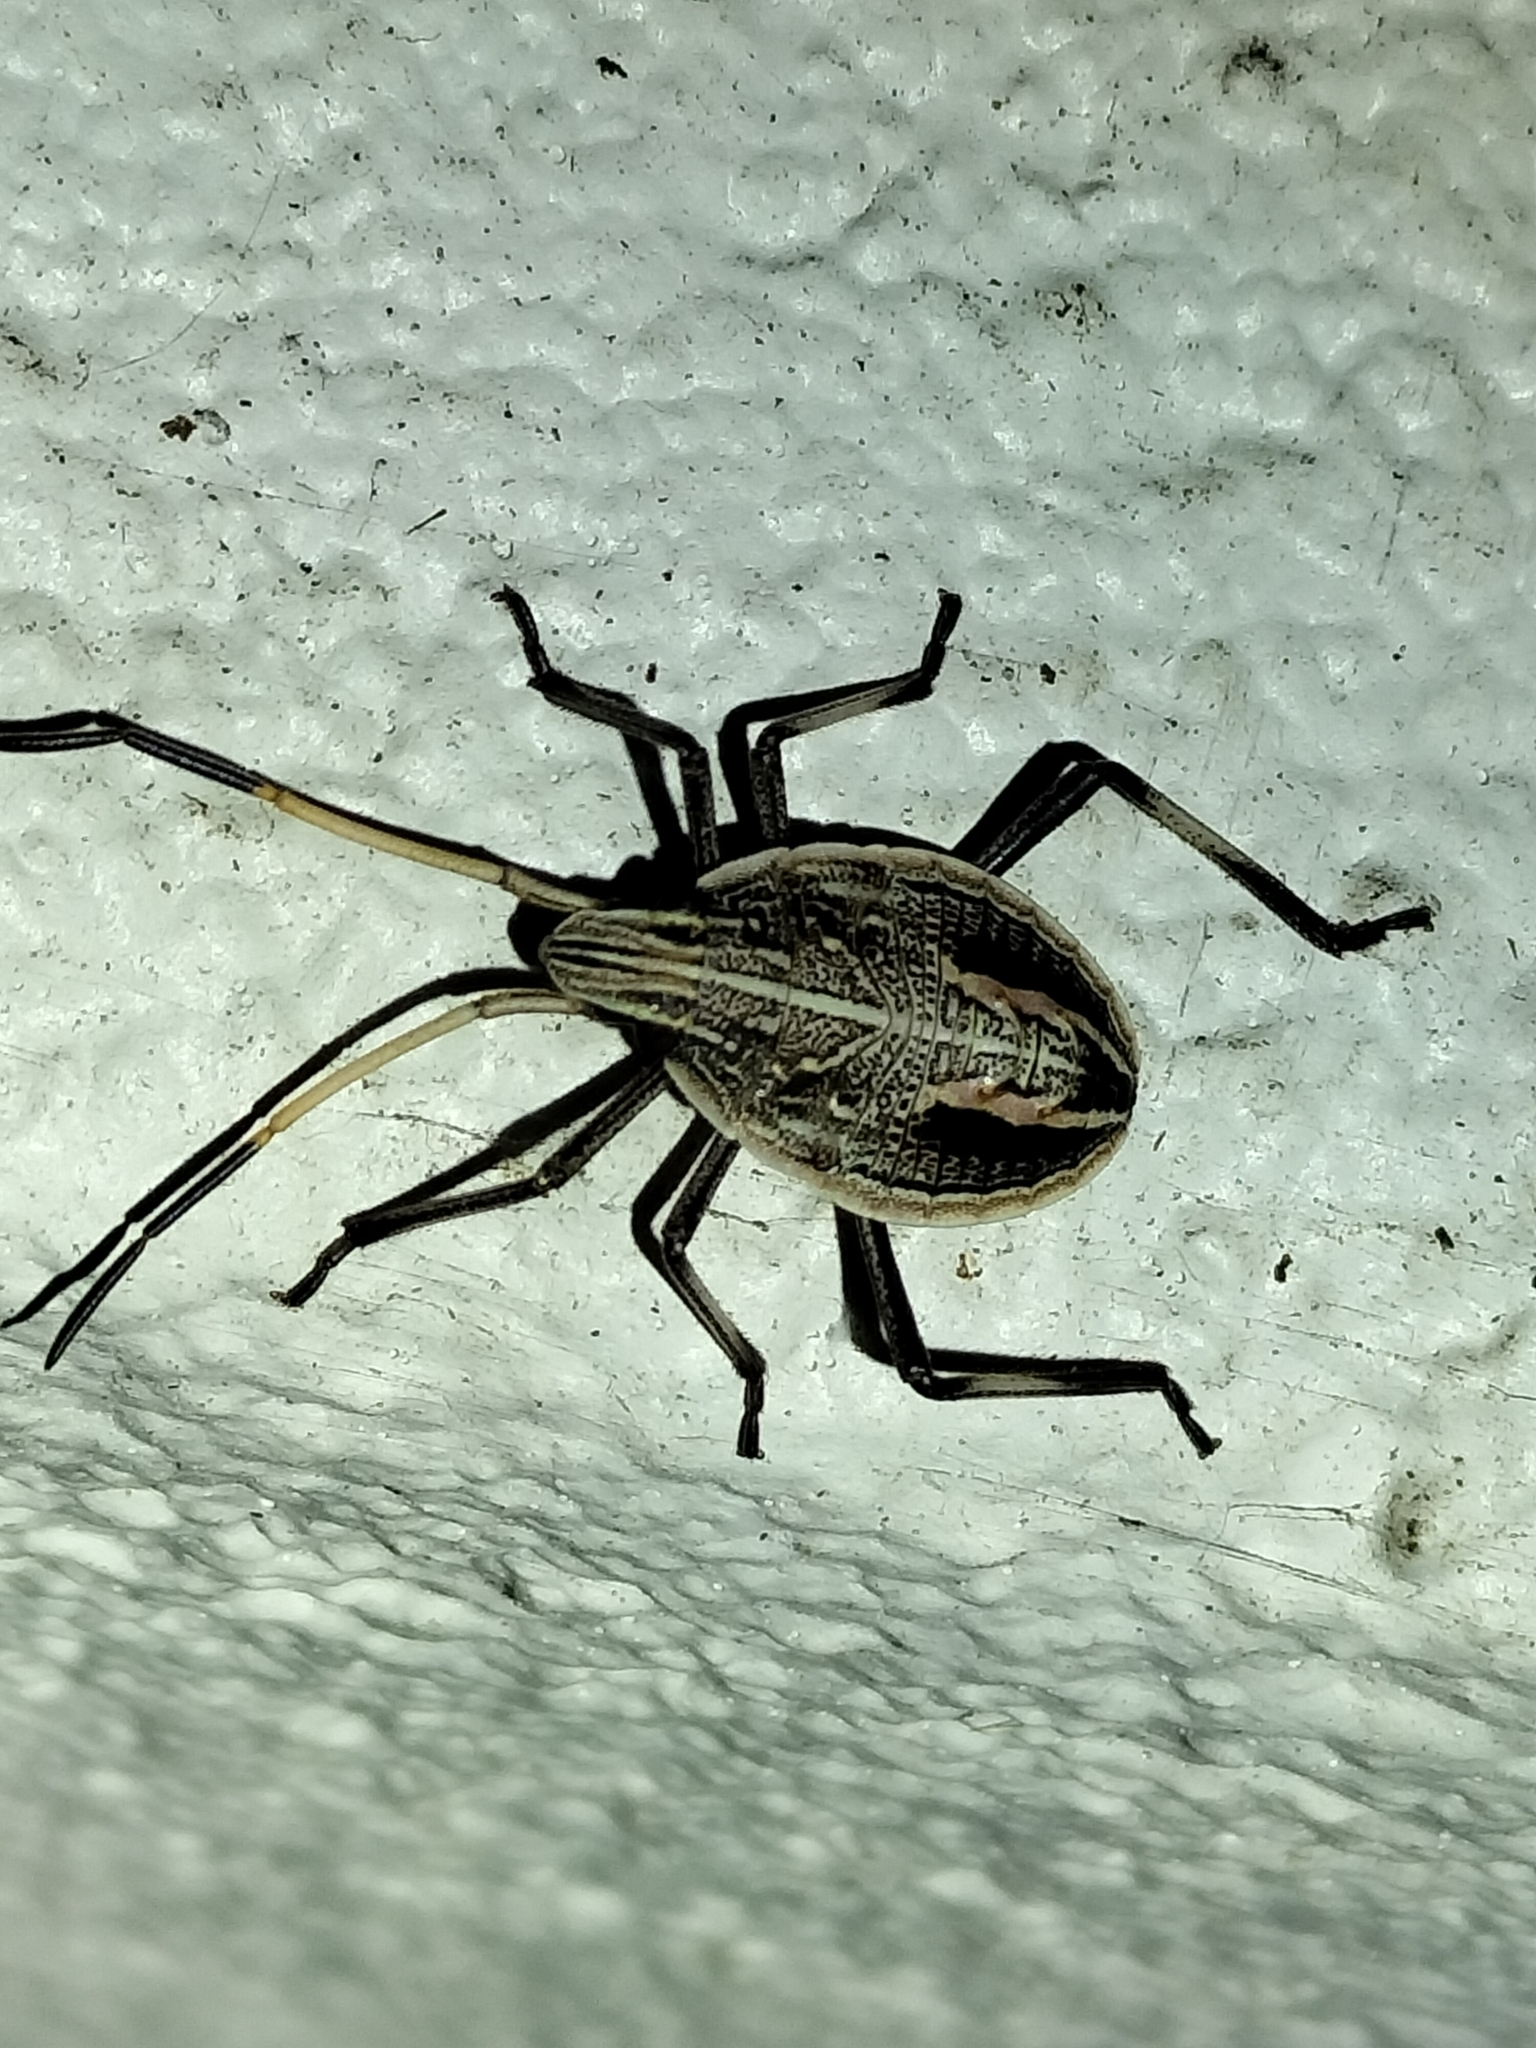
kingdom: Animalia
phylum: Arthropoda
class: Insecta
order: Hemiptera
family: Pentatomidae
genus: Poecilometis
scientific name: Poecilometis
